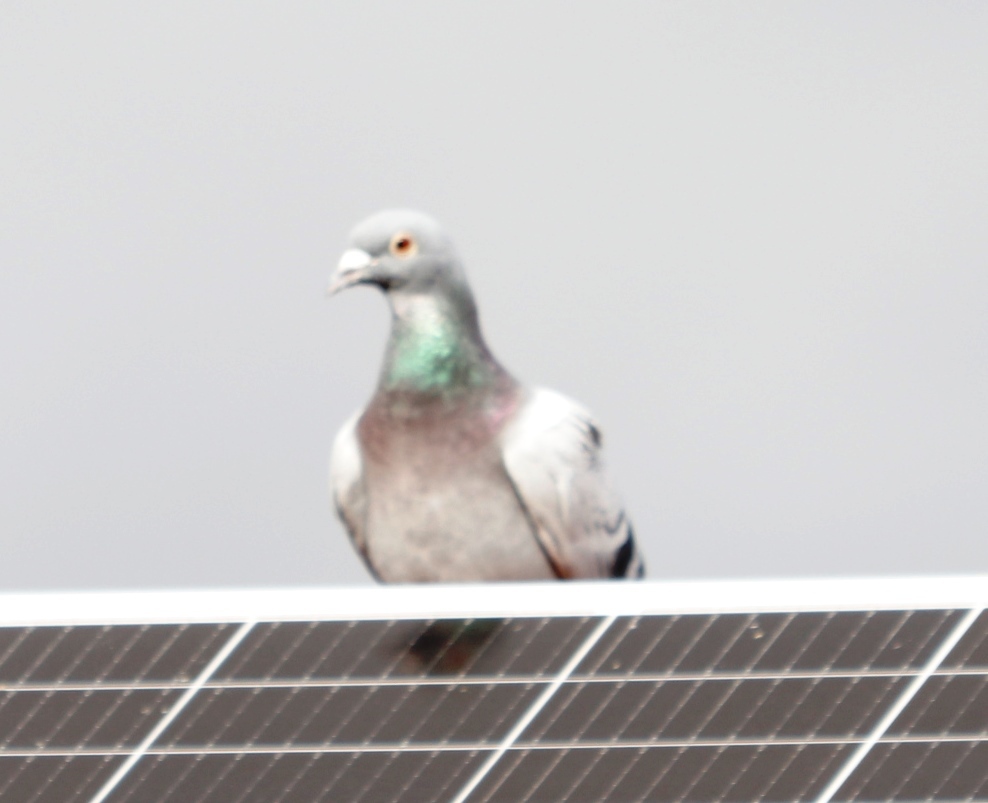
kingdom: Animalia
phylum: Chordata
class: Aves
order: Columbiformes
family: Columbidae
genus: Columba
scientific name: Columba livia
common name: Rock pigeon
